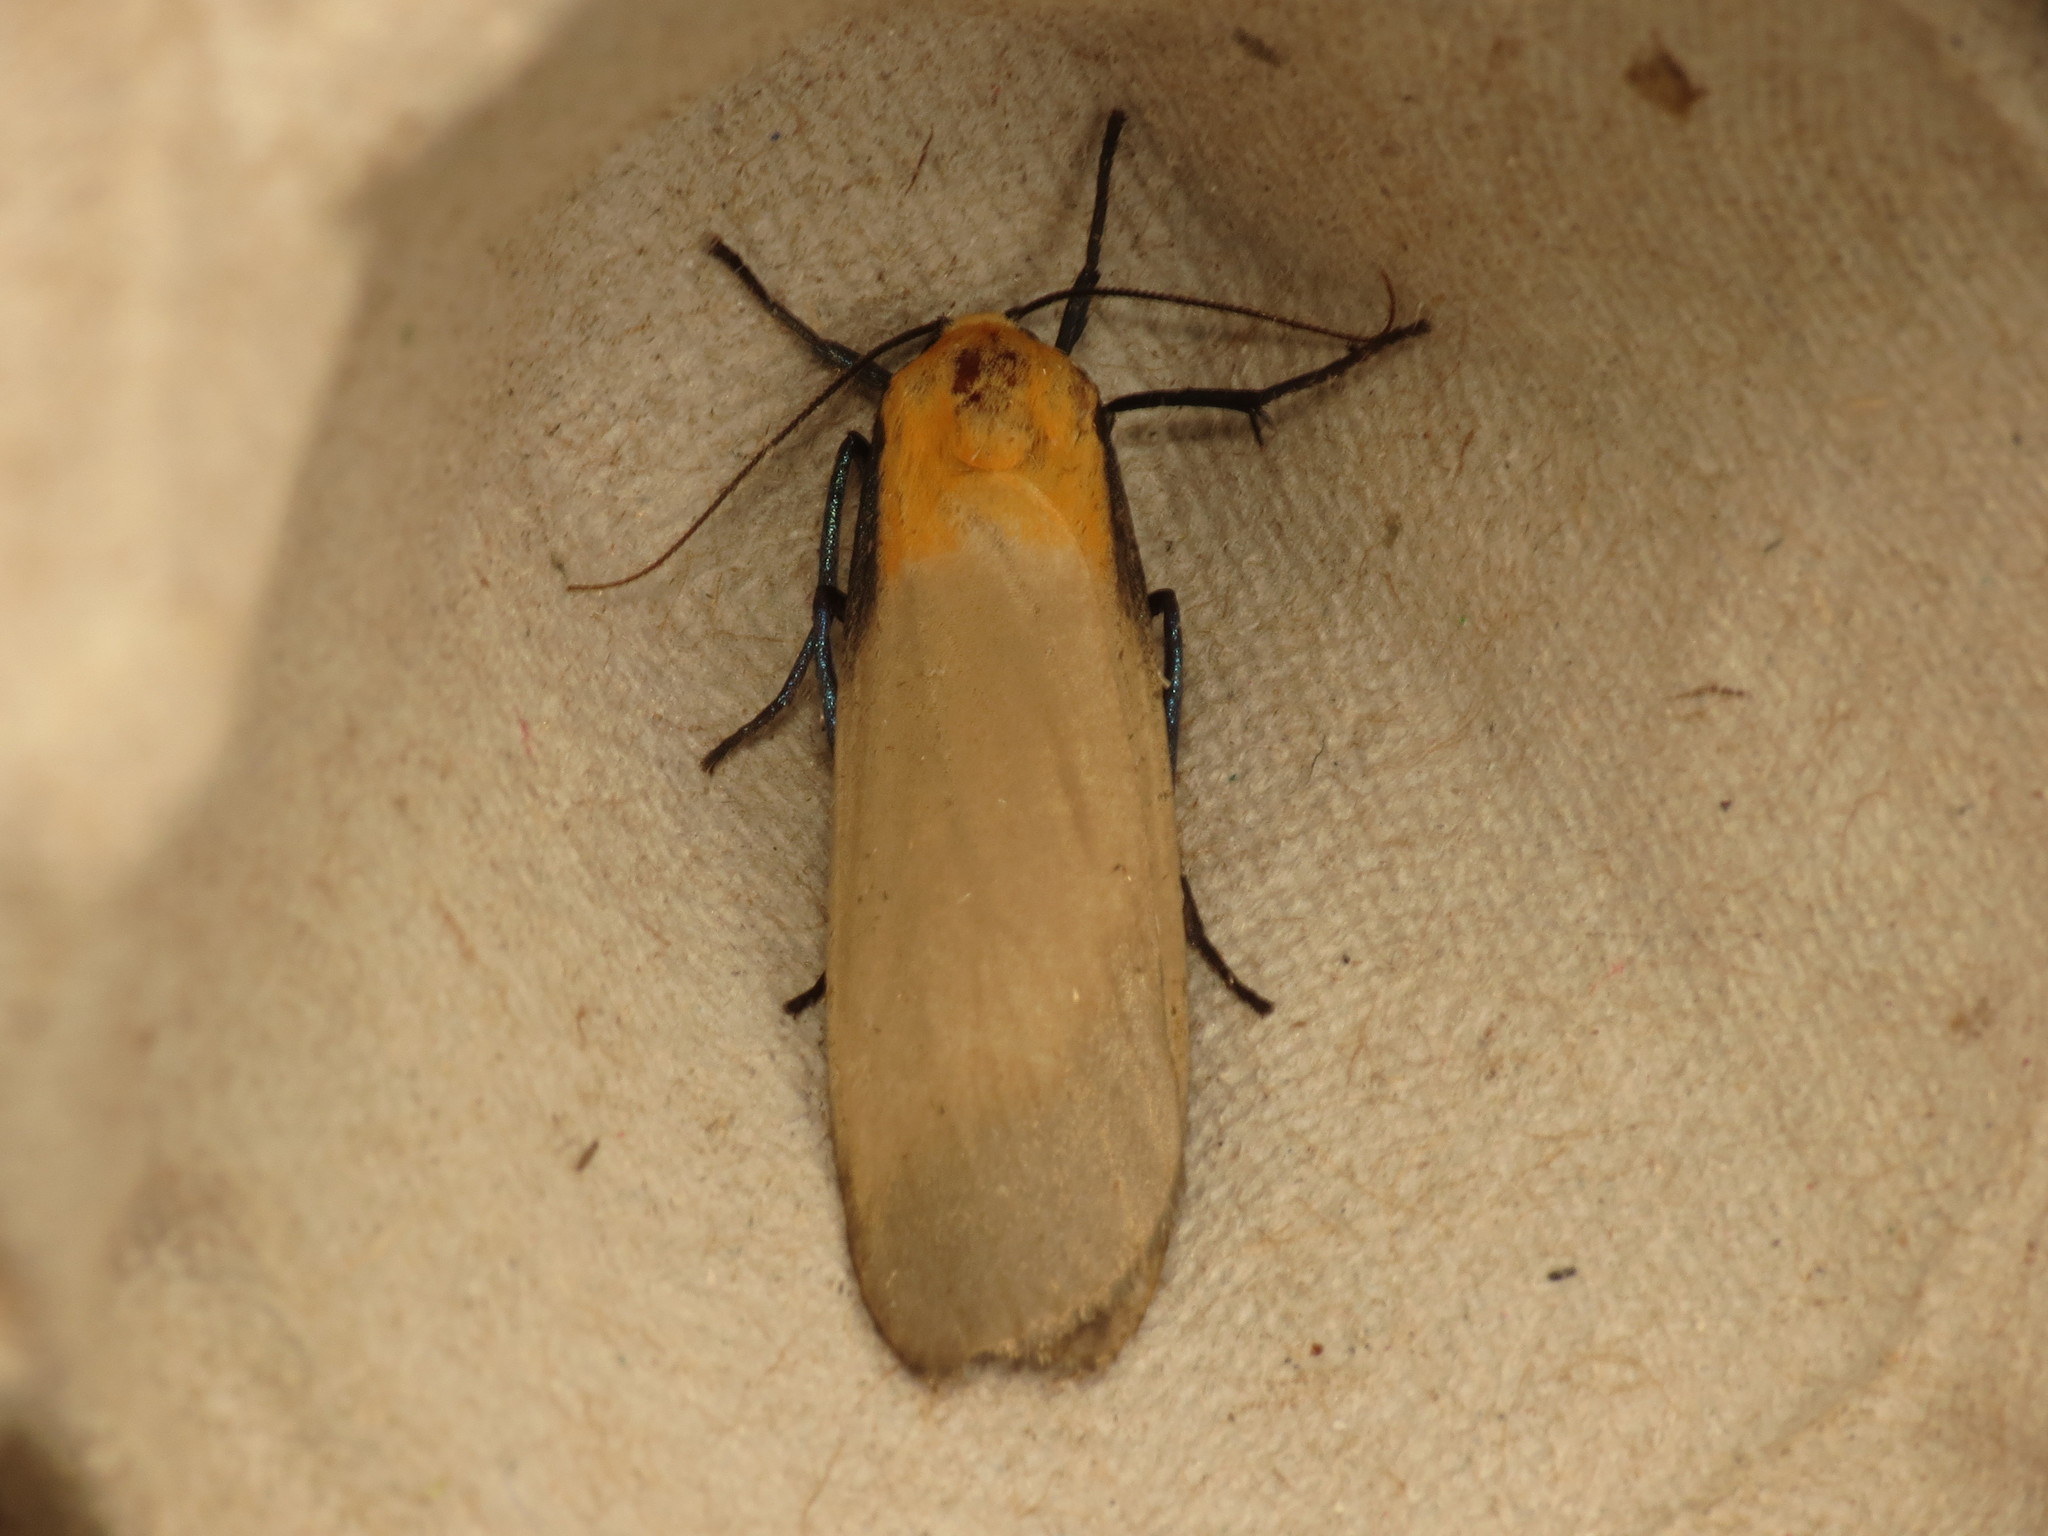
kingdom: Animalia
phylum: Arthropoda
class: Insecta
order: Lepidoptera
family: Erebidae
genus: Lithosia
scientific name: Lithosia quadra
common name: Four-spotted footman
